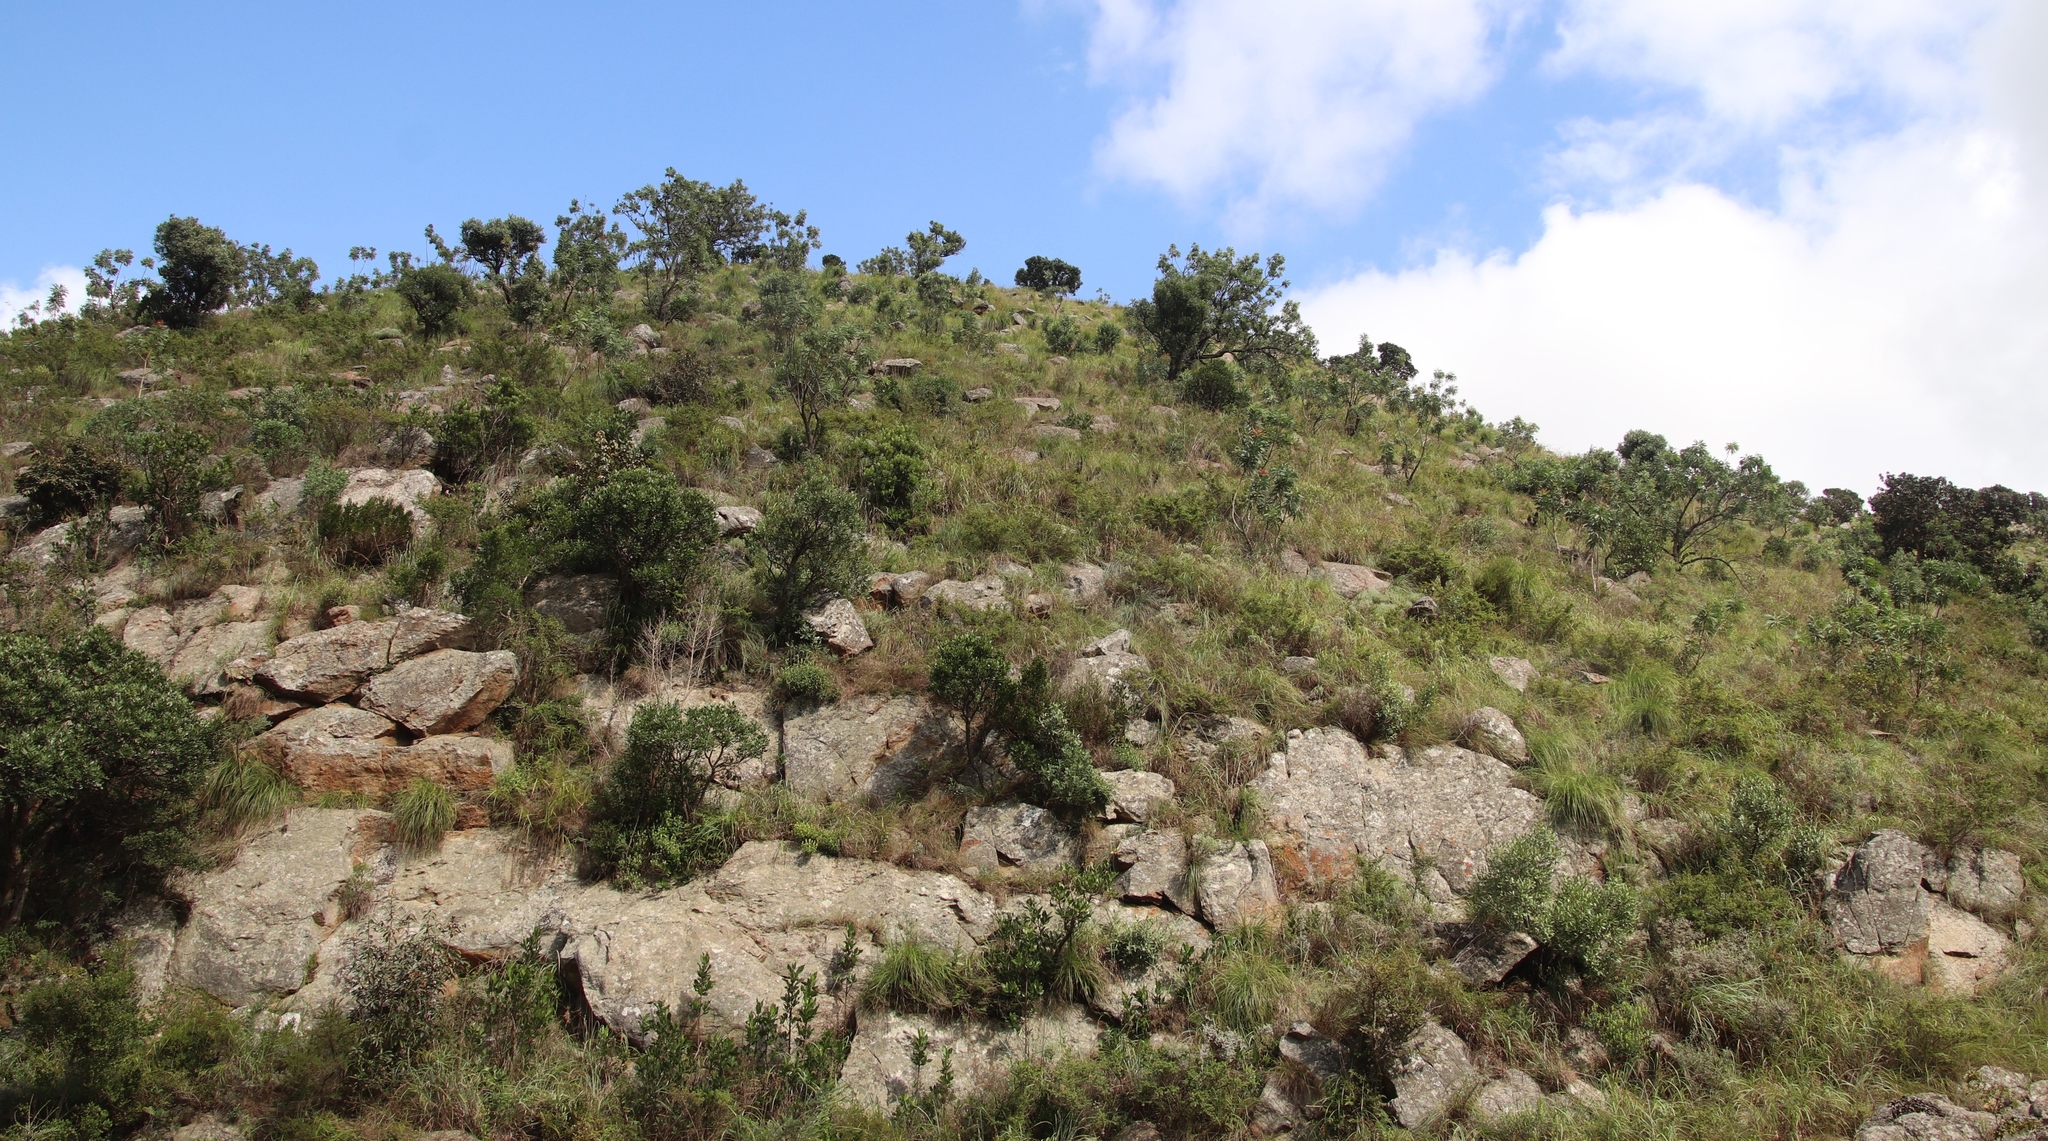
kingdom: Plantae
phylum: Tracheophyta
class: Magnoliopsida
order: Proteales
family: Proteaceae
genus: Protea
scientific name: Protea caffra
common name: Common sugarbush
